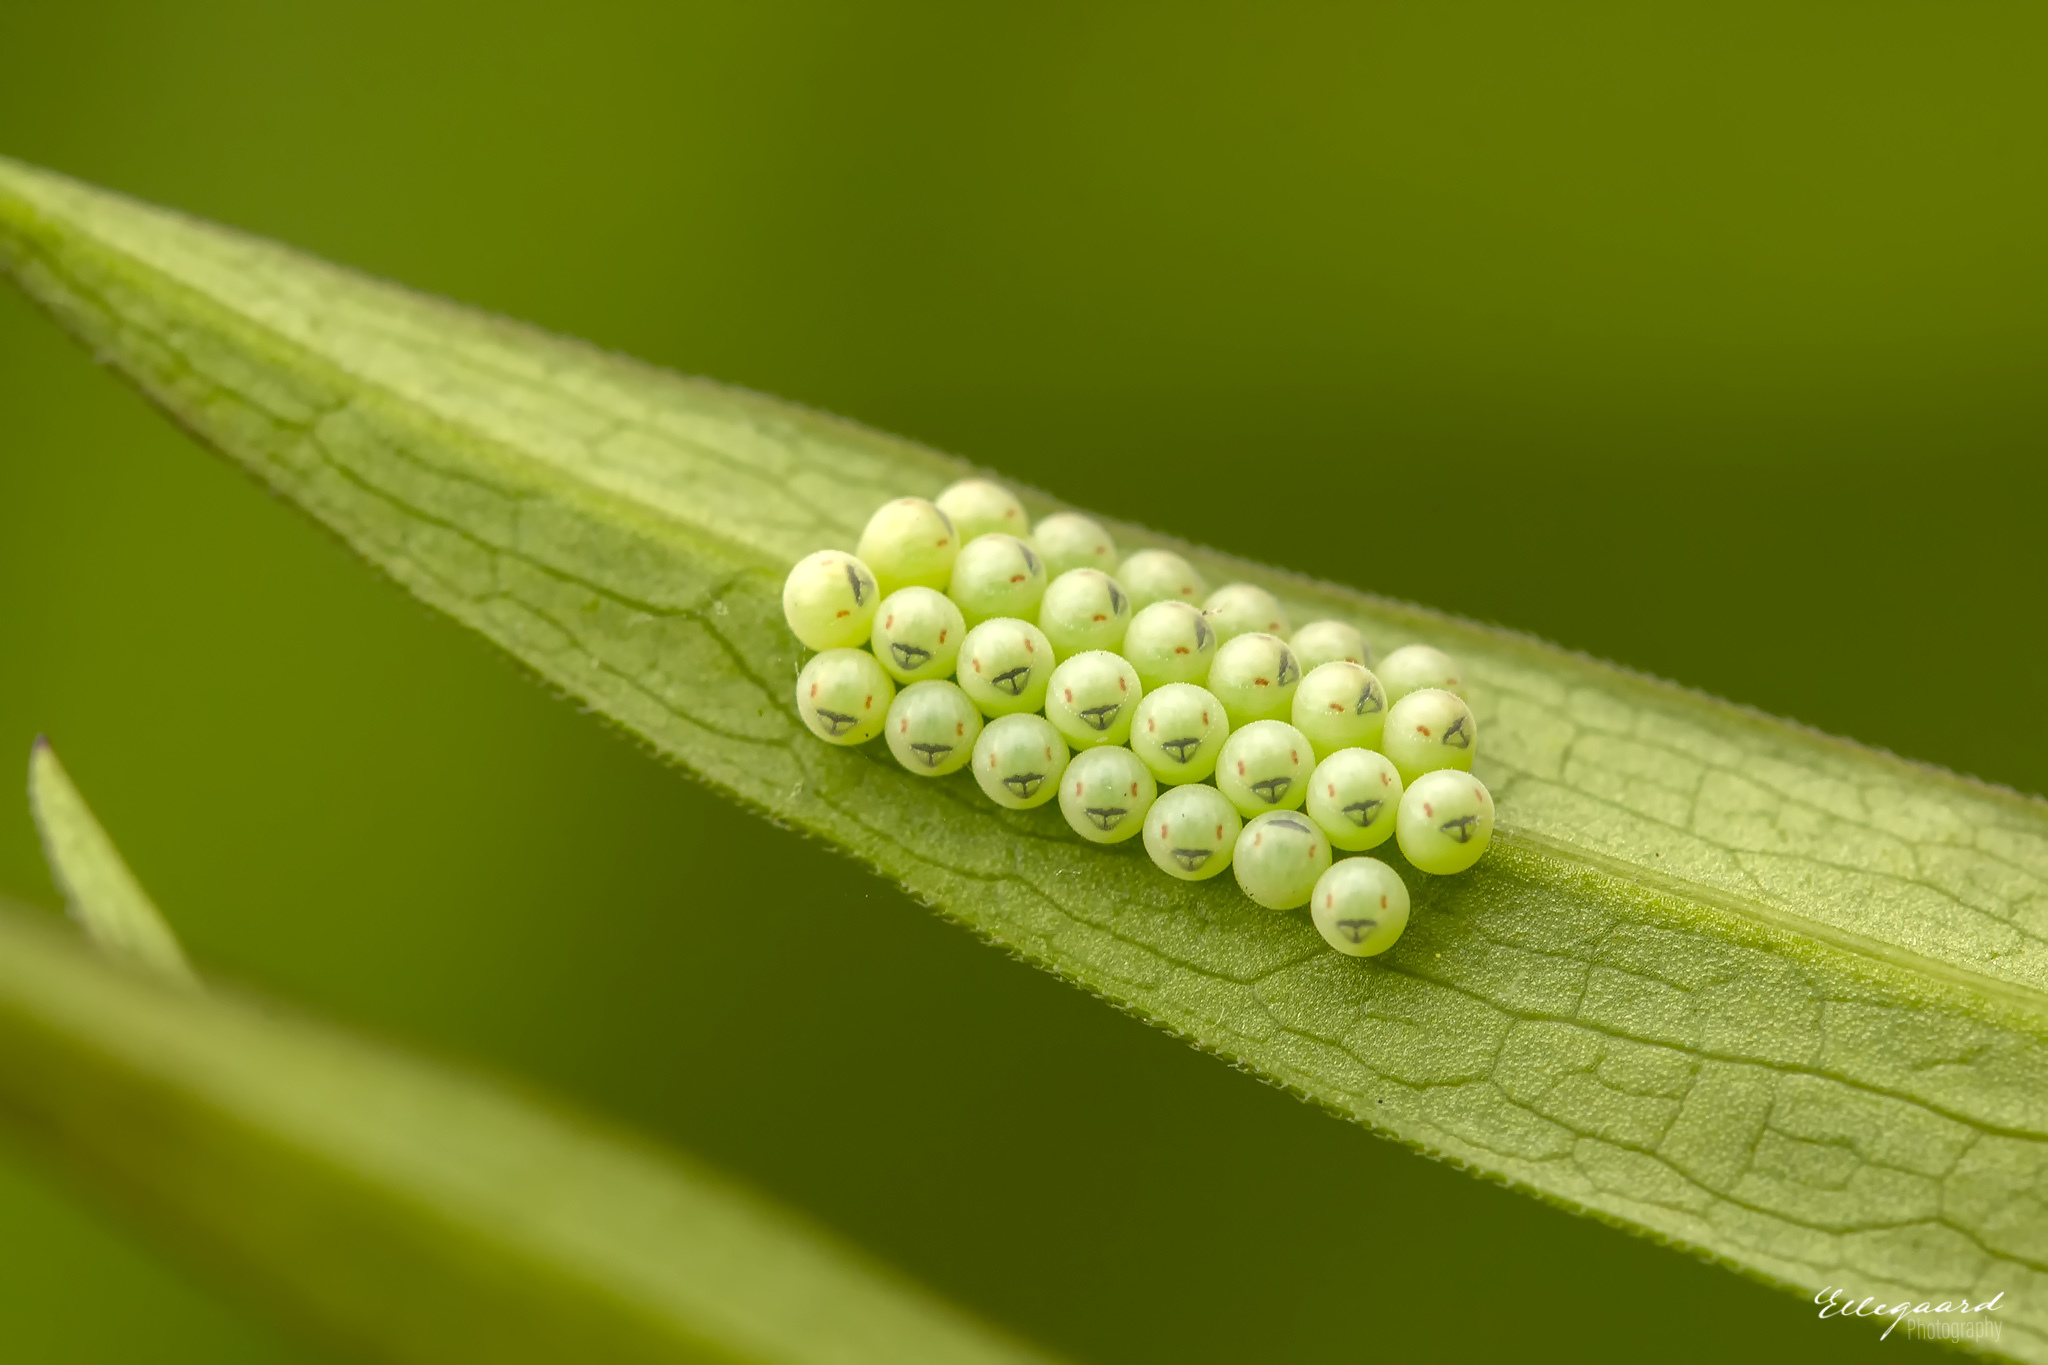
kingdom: Animalia
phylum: Arthropoda
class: Insecta
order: Hemiptera
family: Pentatomidae
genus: Palomena
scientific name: Palomena prasina
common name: Green shieldbug
